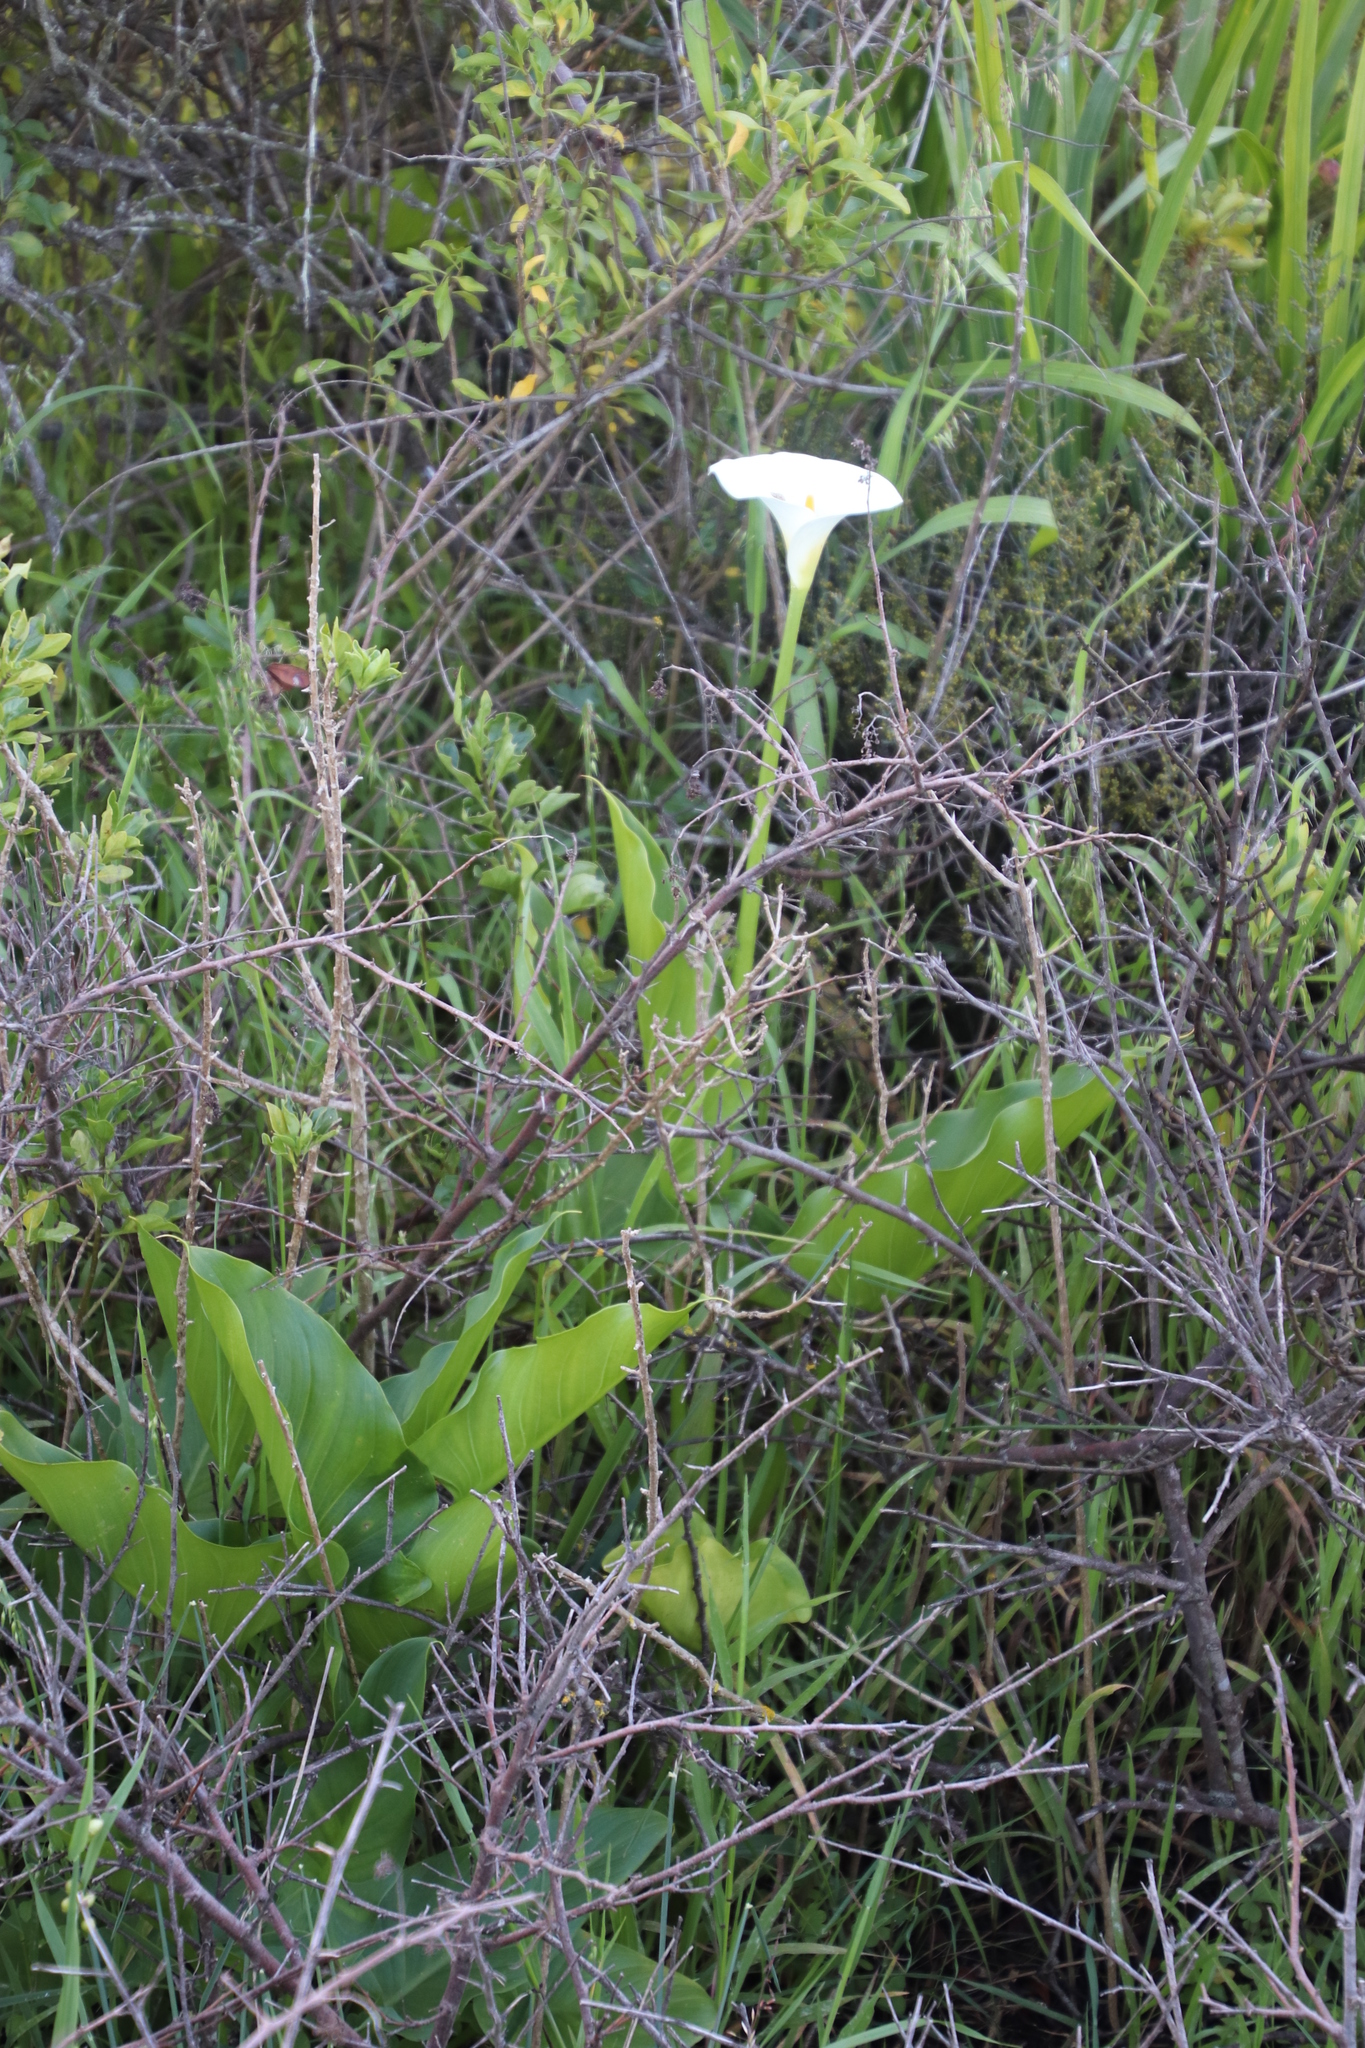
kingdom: Plantae
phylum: Tracheophyta
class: Liliopsida
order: Alismatales
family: Araceae
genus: Zantedeschia
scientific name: Zantedeschia aethiopica
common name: Altar-lily
